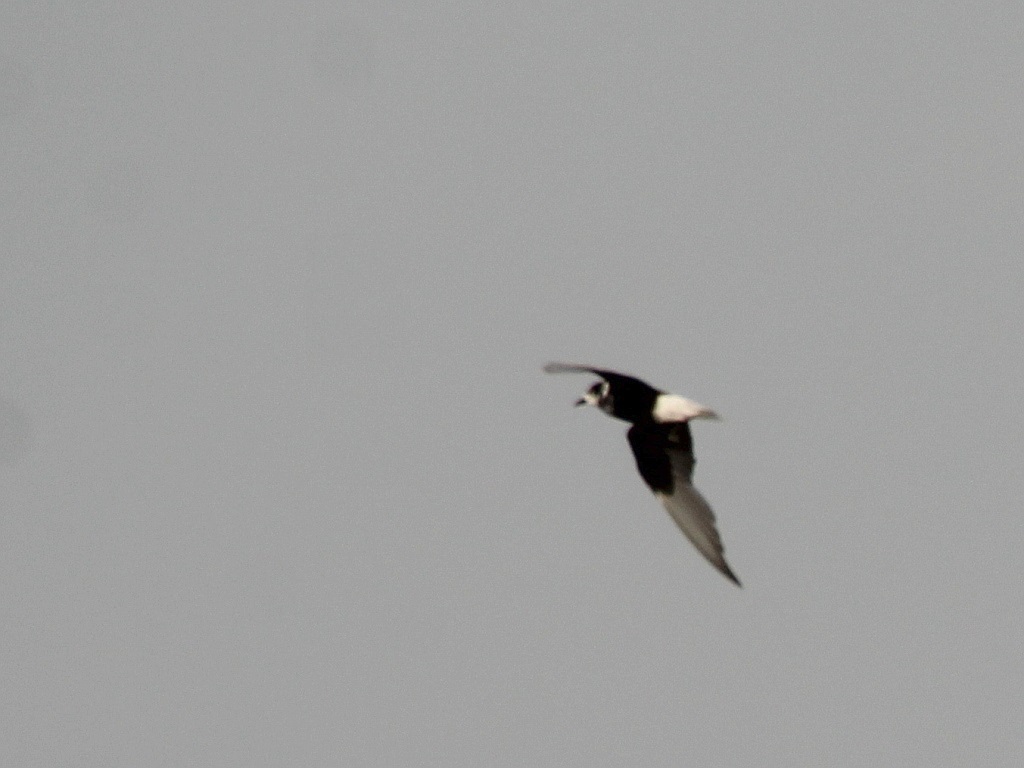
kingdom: Animalia
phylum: Chordata
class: Aves
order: Charadriiformes
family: Laridae
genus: Chlidonias
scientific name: Chlidonias leucopterus
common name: White-winged tern
